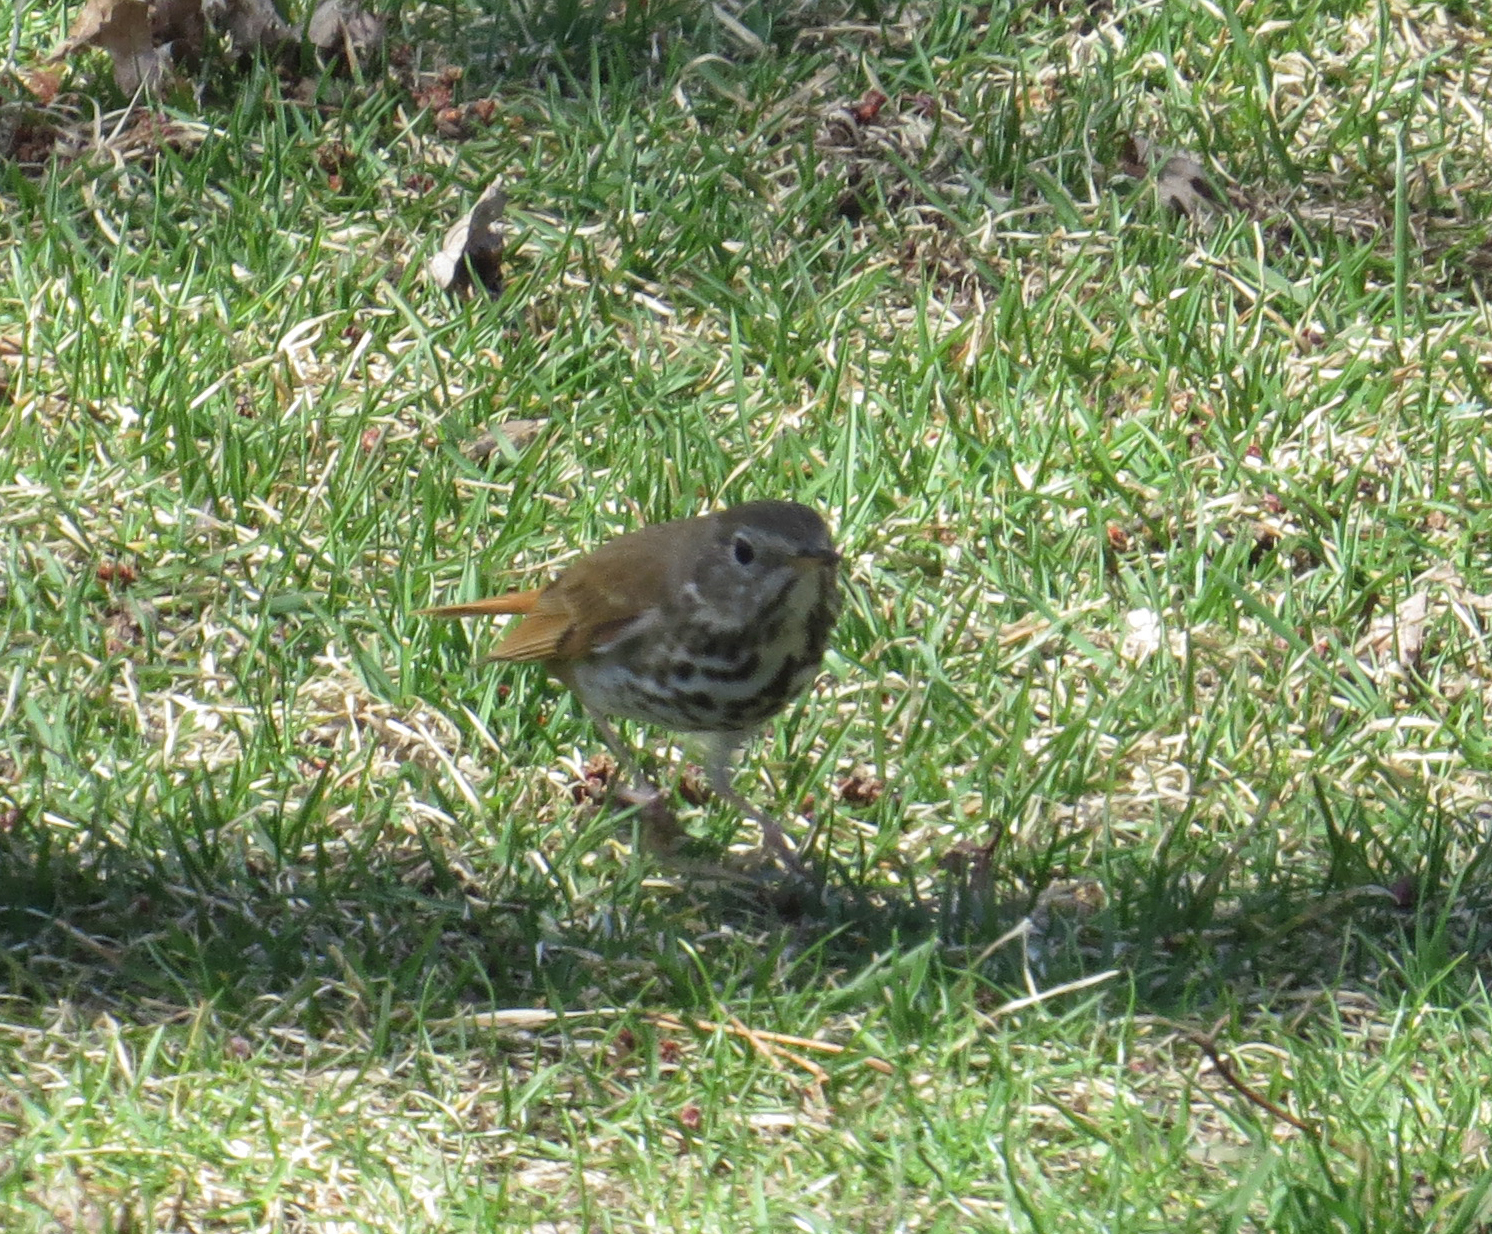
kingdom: Animalia
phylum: Chordata
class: Aves
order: Passeriformes
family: Turdidae
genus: Catharus
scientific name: Catharus guttatus
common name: Hermit thrush
